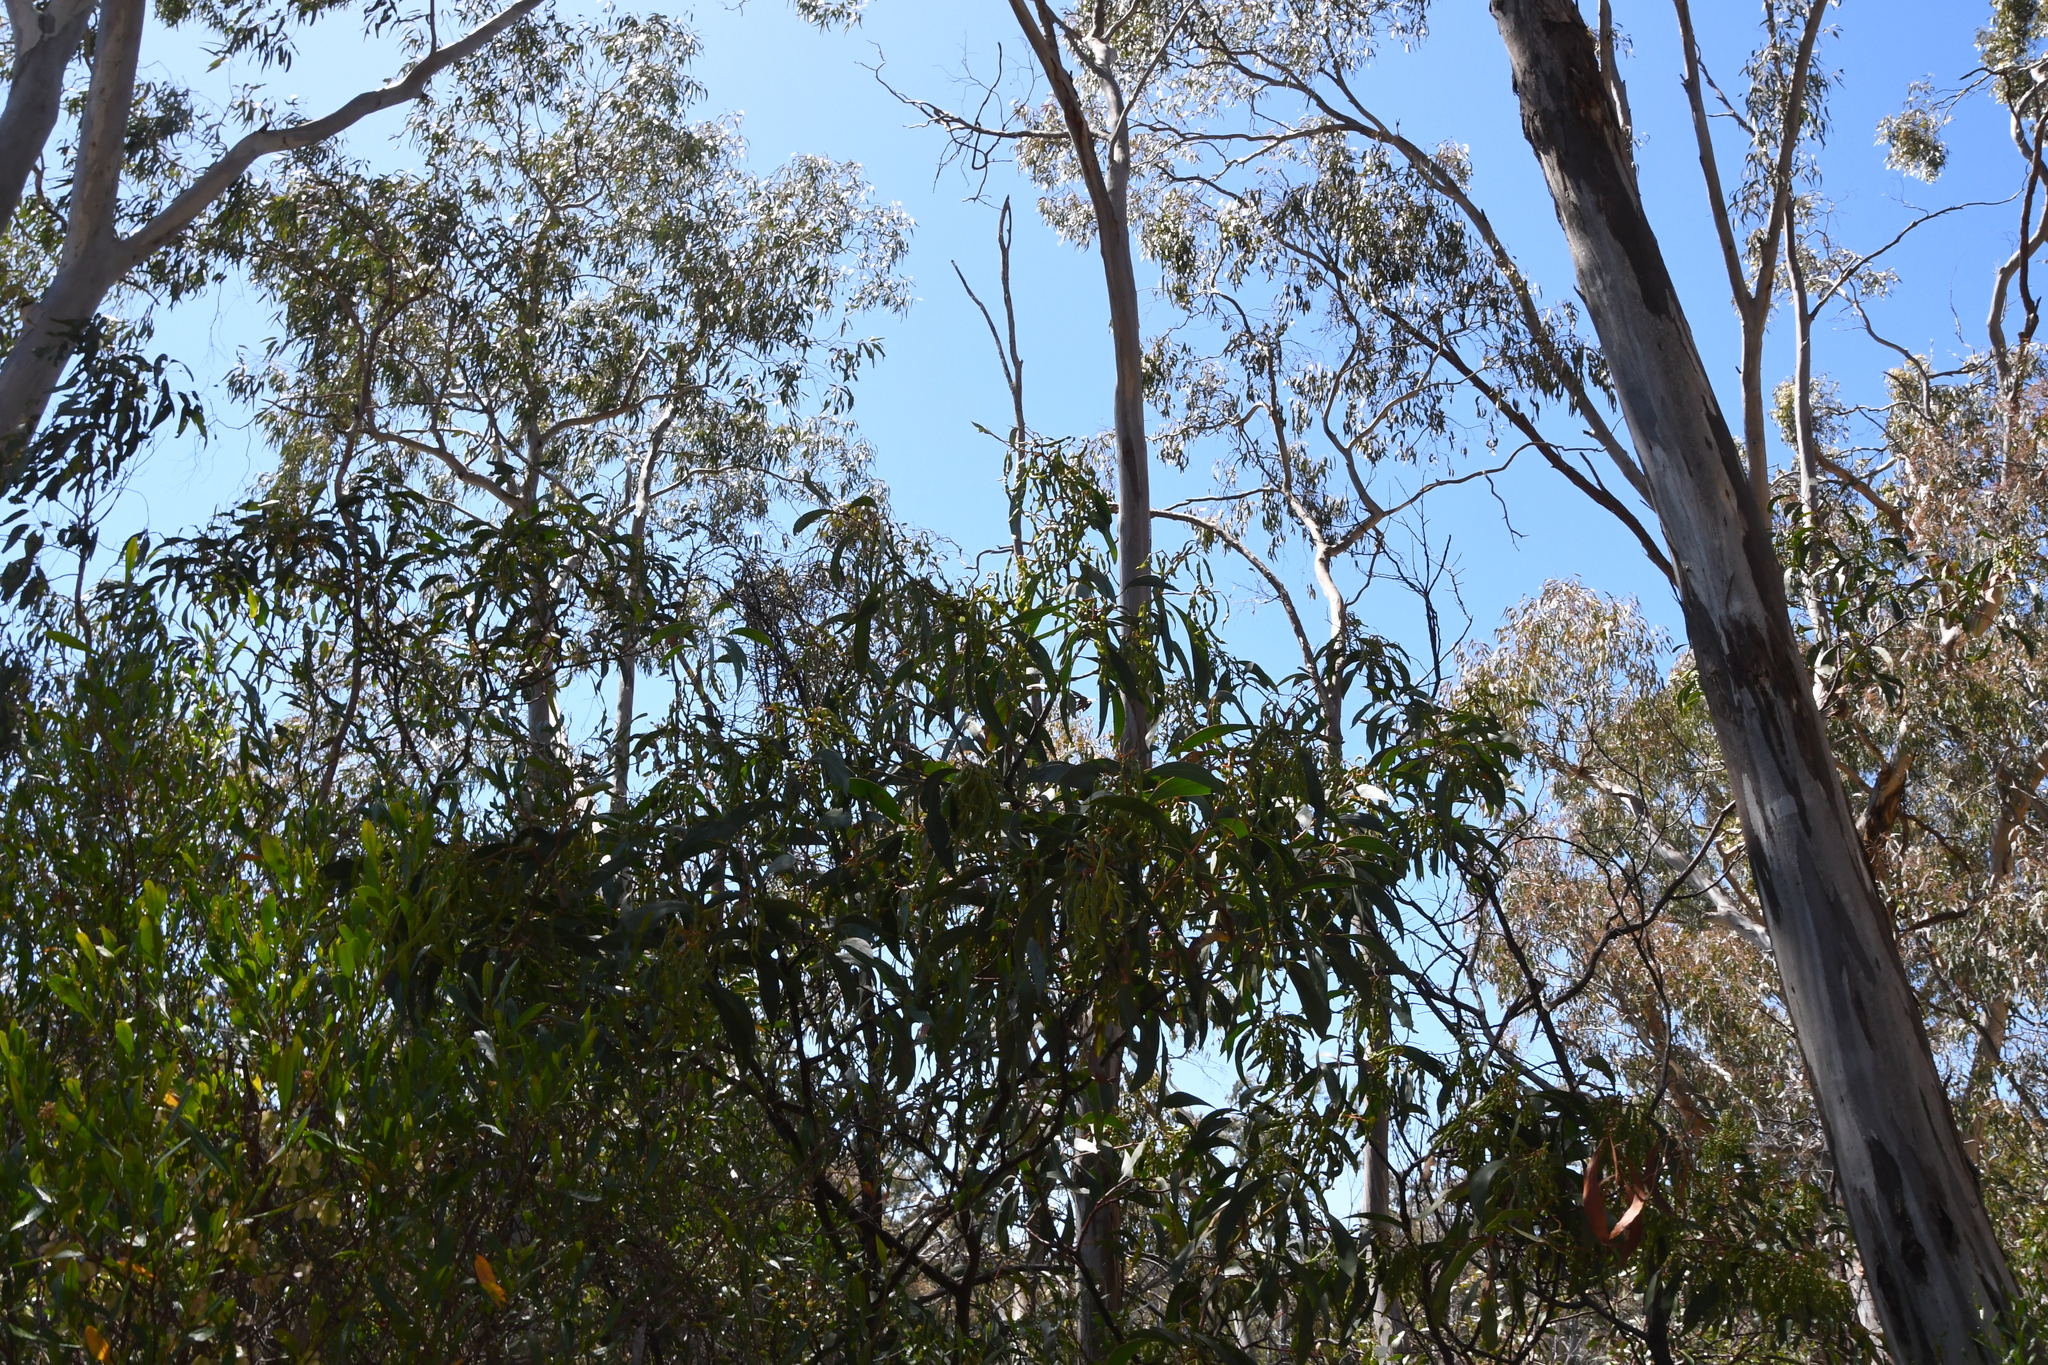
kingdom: Plantae
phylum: Tracheophyta
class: Magnoliopsida
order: Fabales
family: Fabaceae
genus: Acacia
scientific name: Acacia pycnantha
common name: Golden wattle
